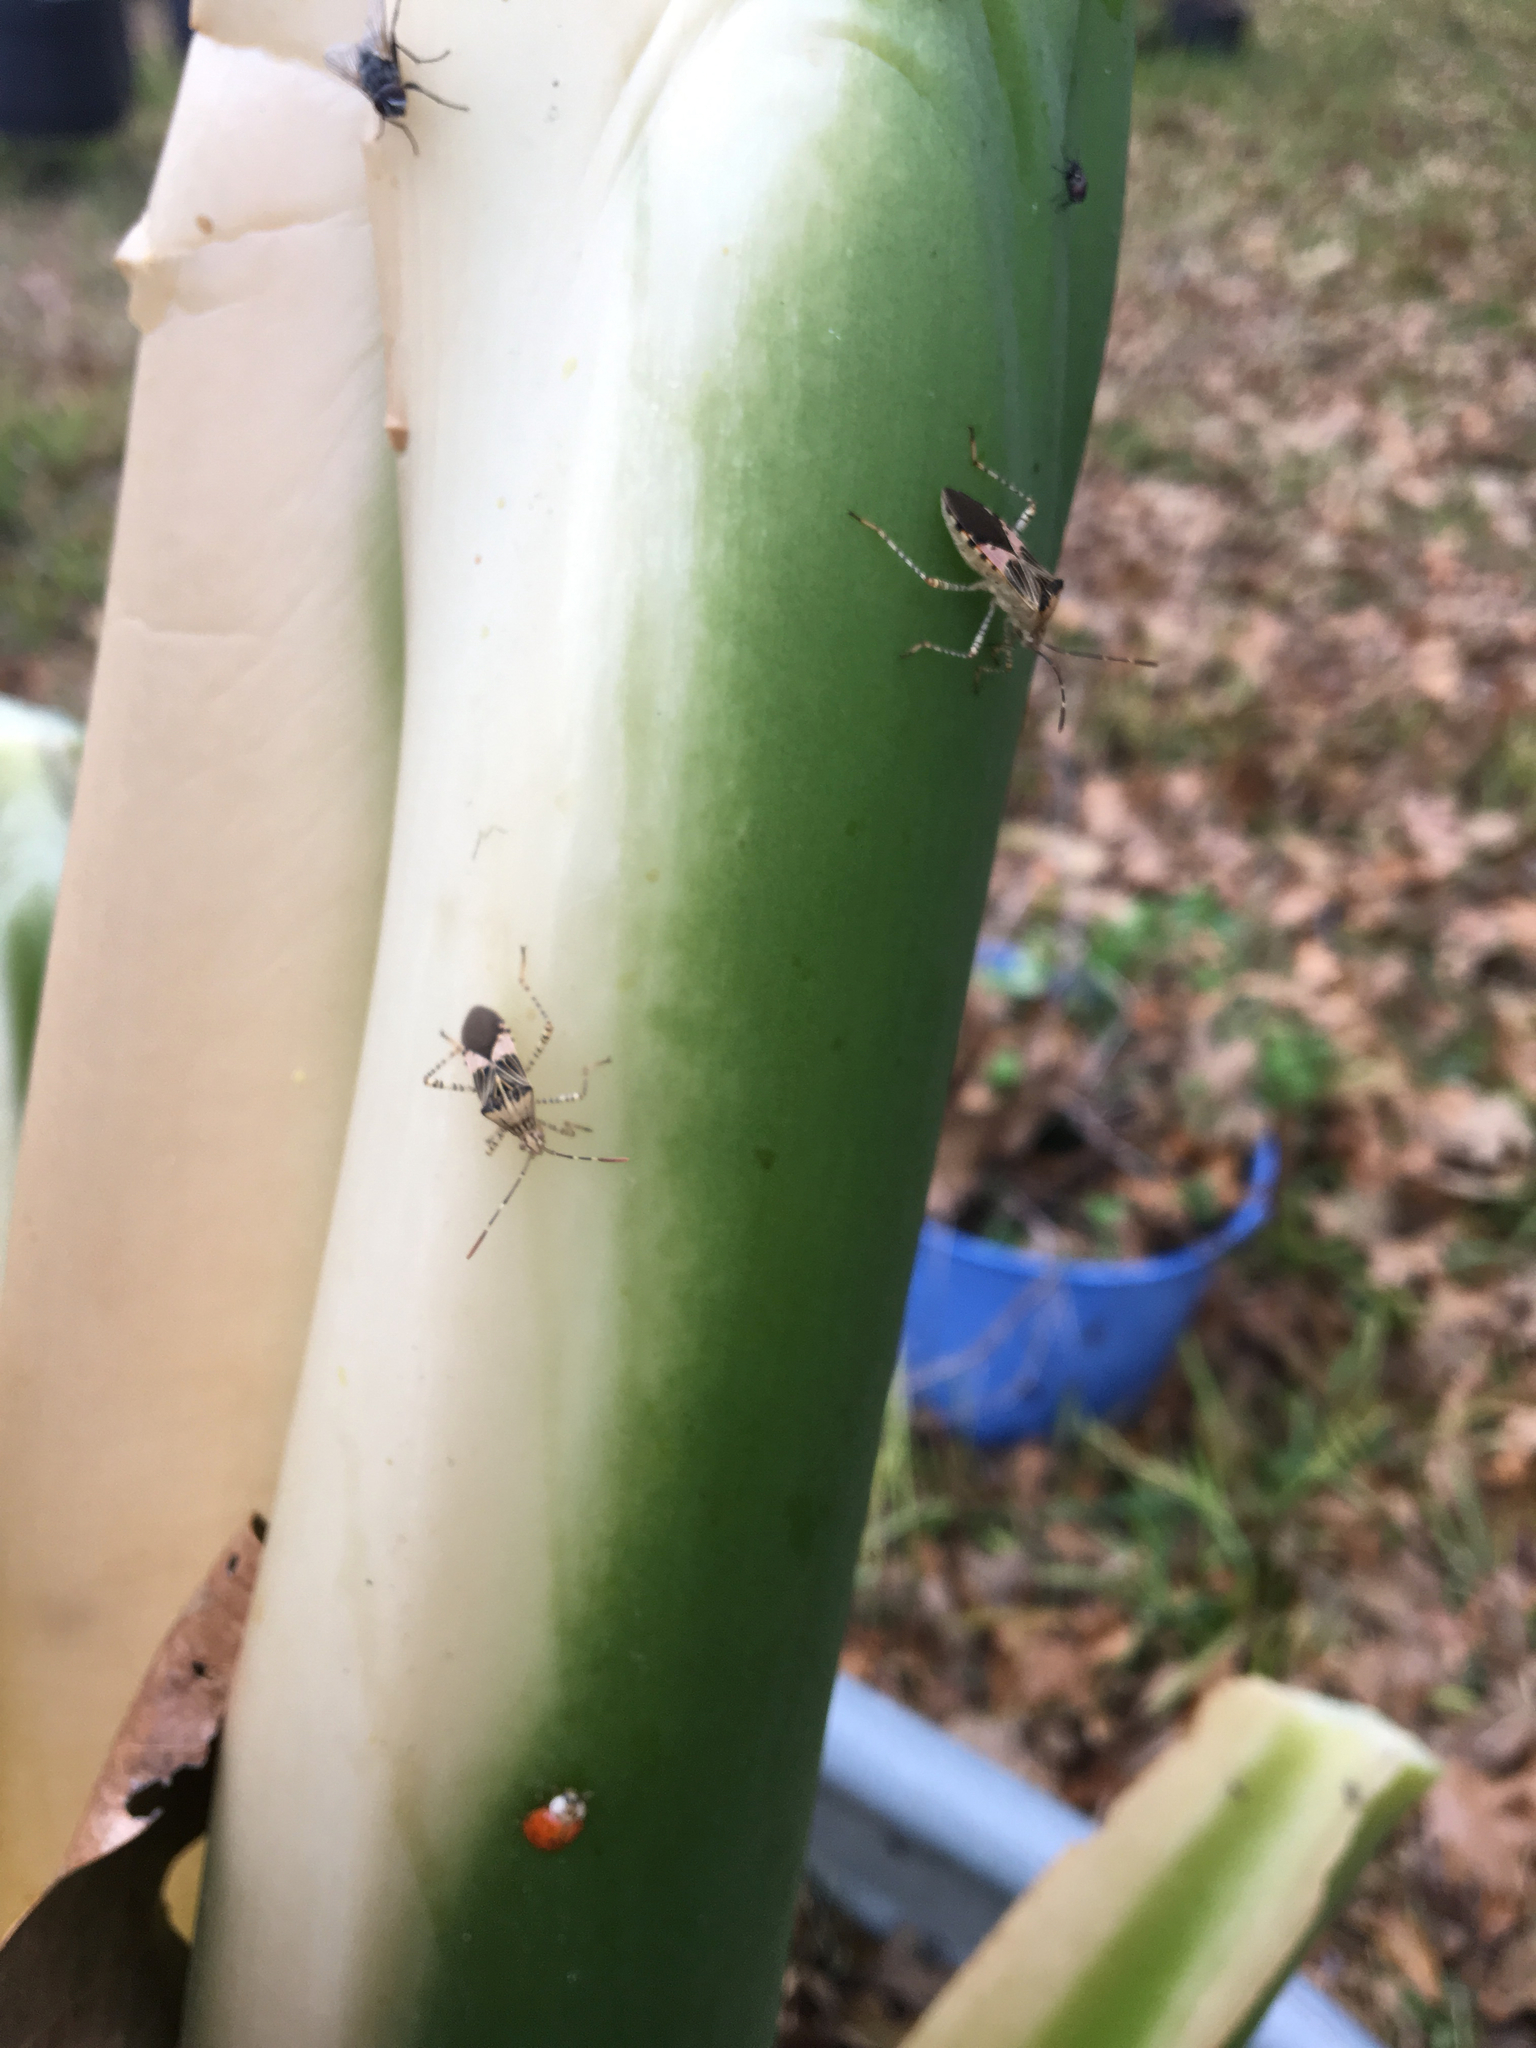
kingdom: Animalia
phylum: Arthropoda
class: Insecta
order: Hemiptera
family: Coreidae
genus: Hypselonotus
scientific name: Hypselonotus punctiventris
